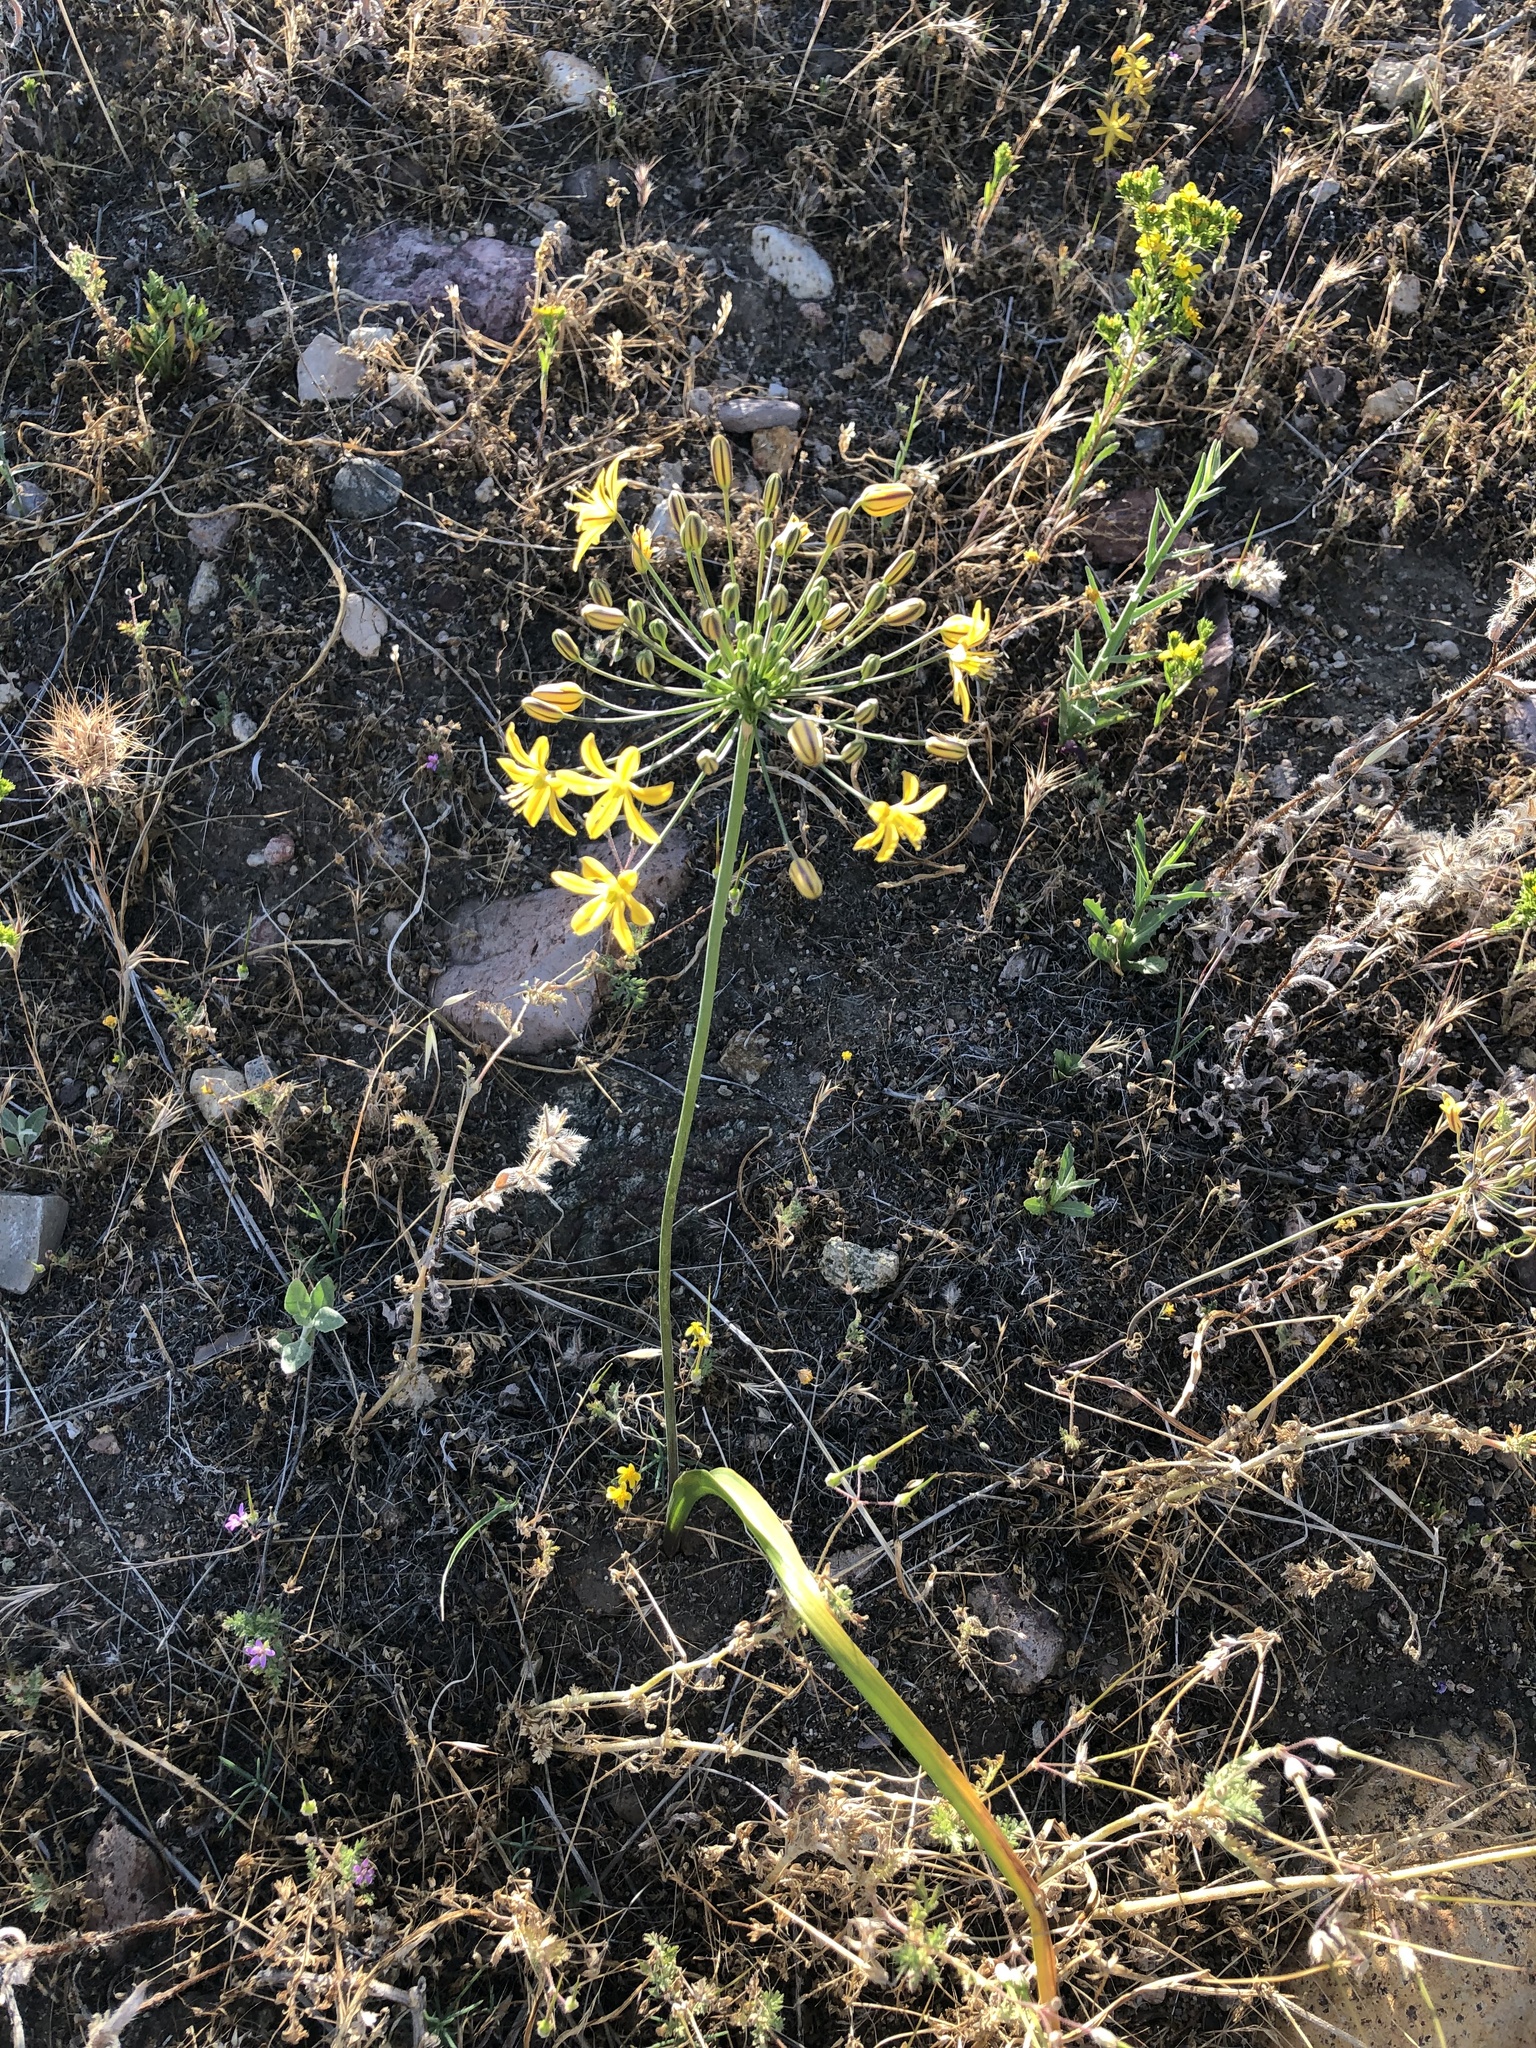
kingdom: Plantae
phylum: Tracheophyta
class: Liliopsida
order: Asparagales
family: Asparagaceae
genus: Bloomeria
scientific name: Bloomeria crocea
